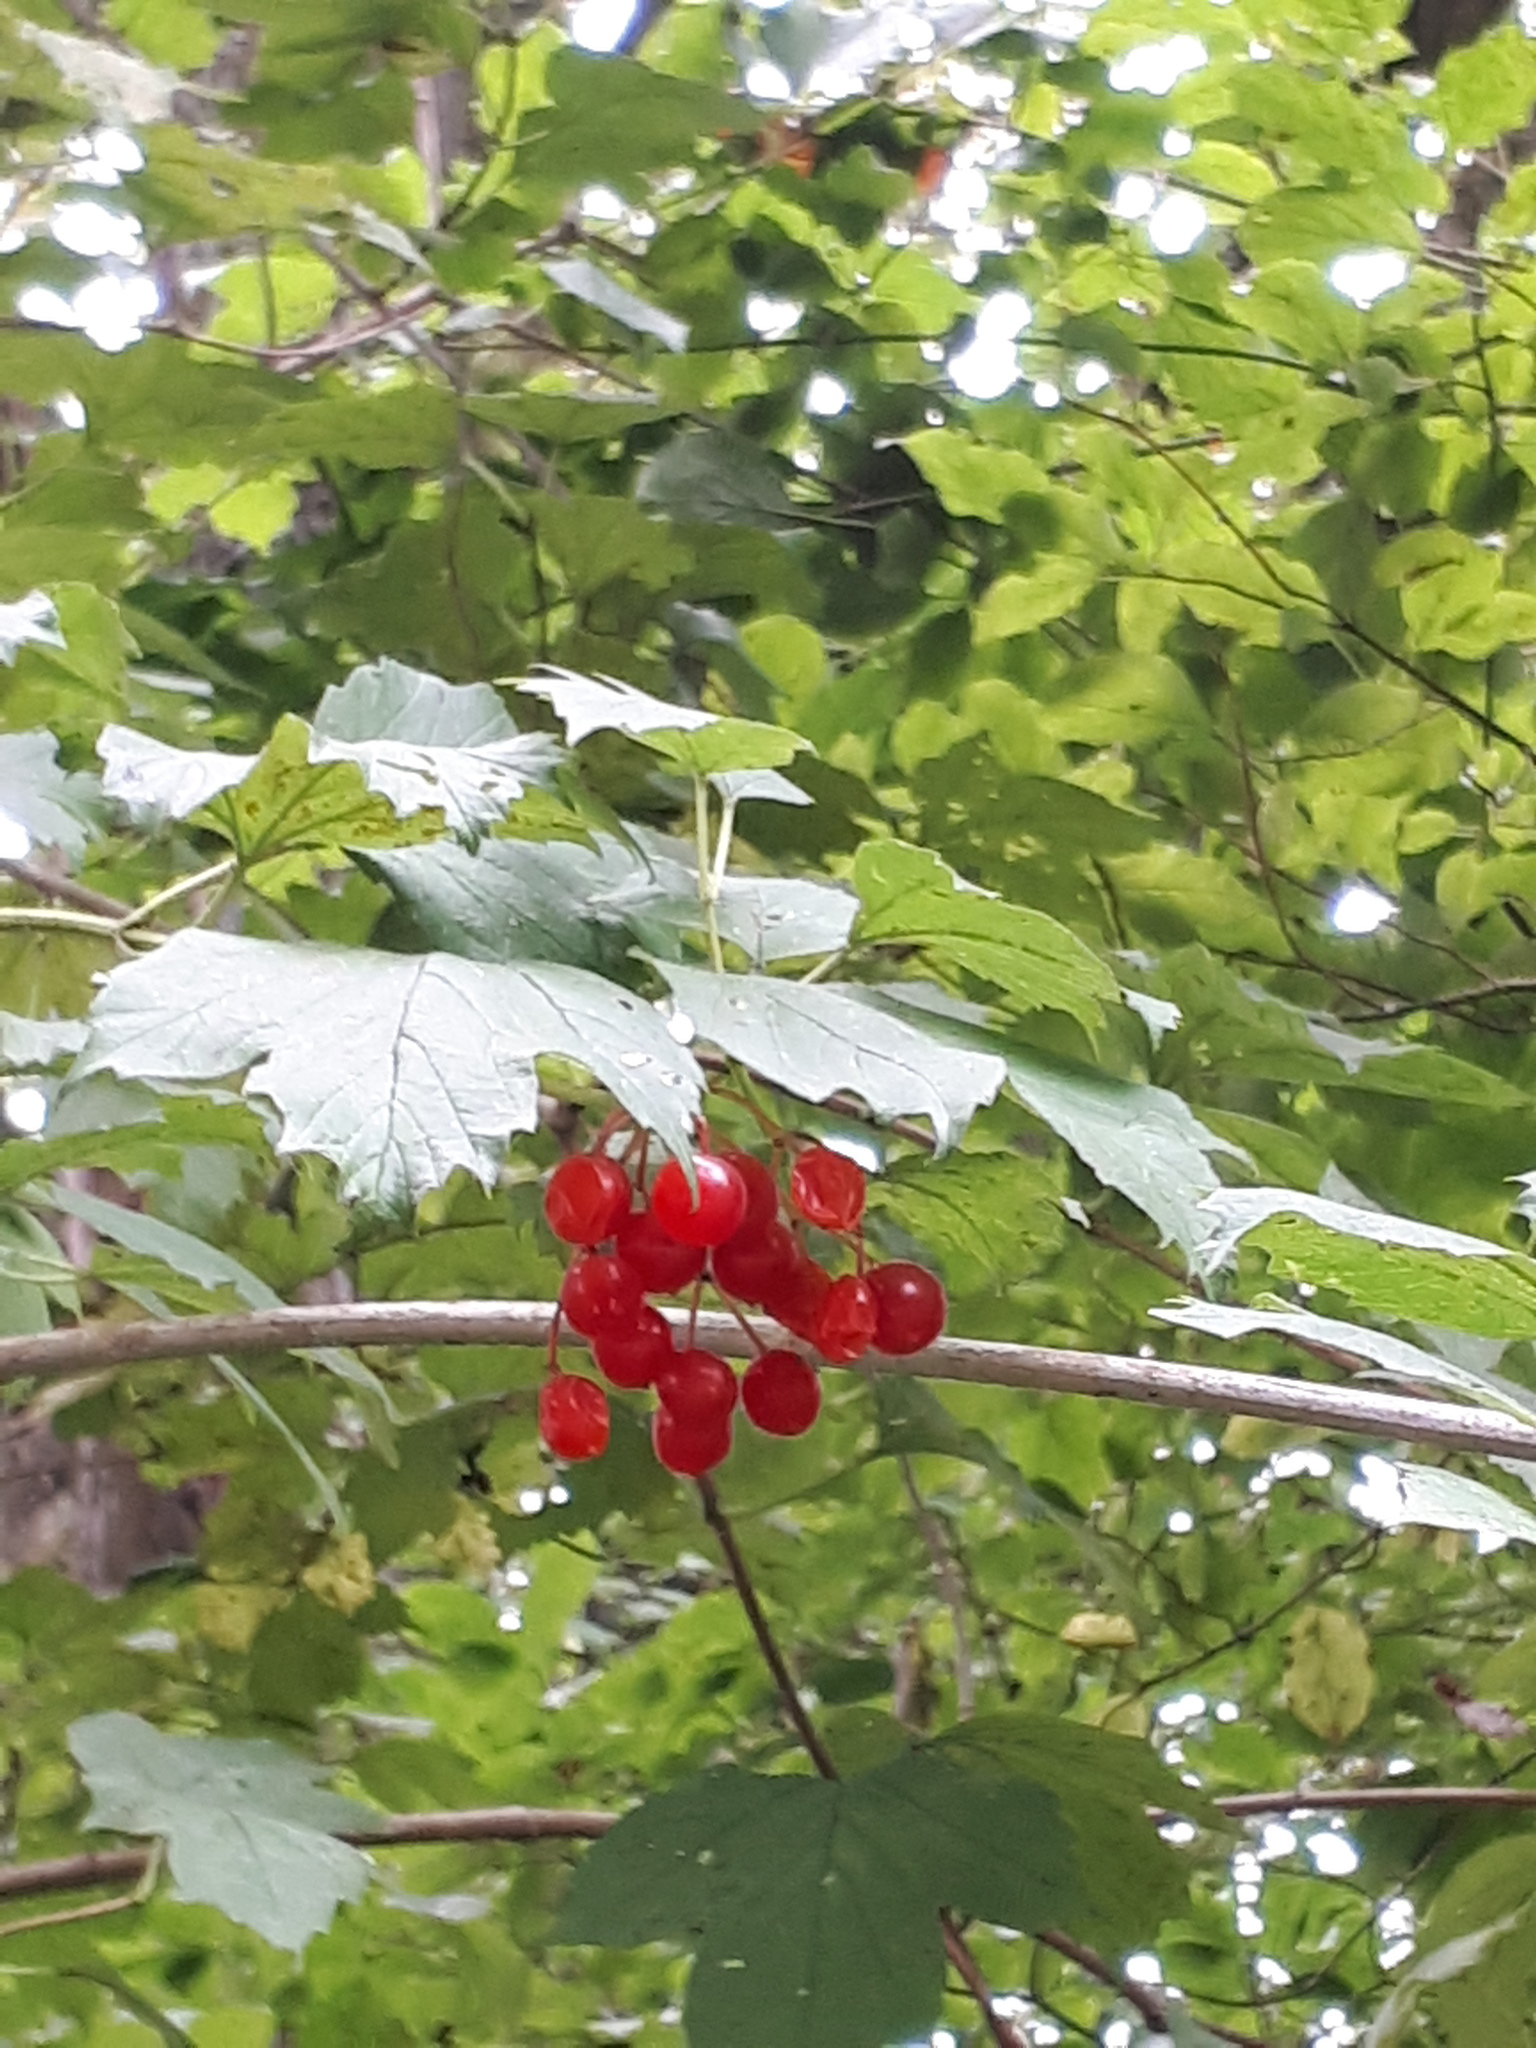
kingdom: Plantae
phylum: Tracheophyta
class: Magnoliopsida
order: Dipsacales
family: Viburnaceae
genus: Viburnum
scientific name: Viburnum opulus
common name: Guelder-rose
